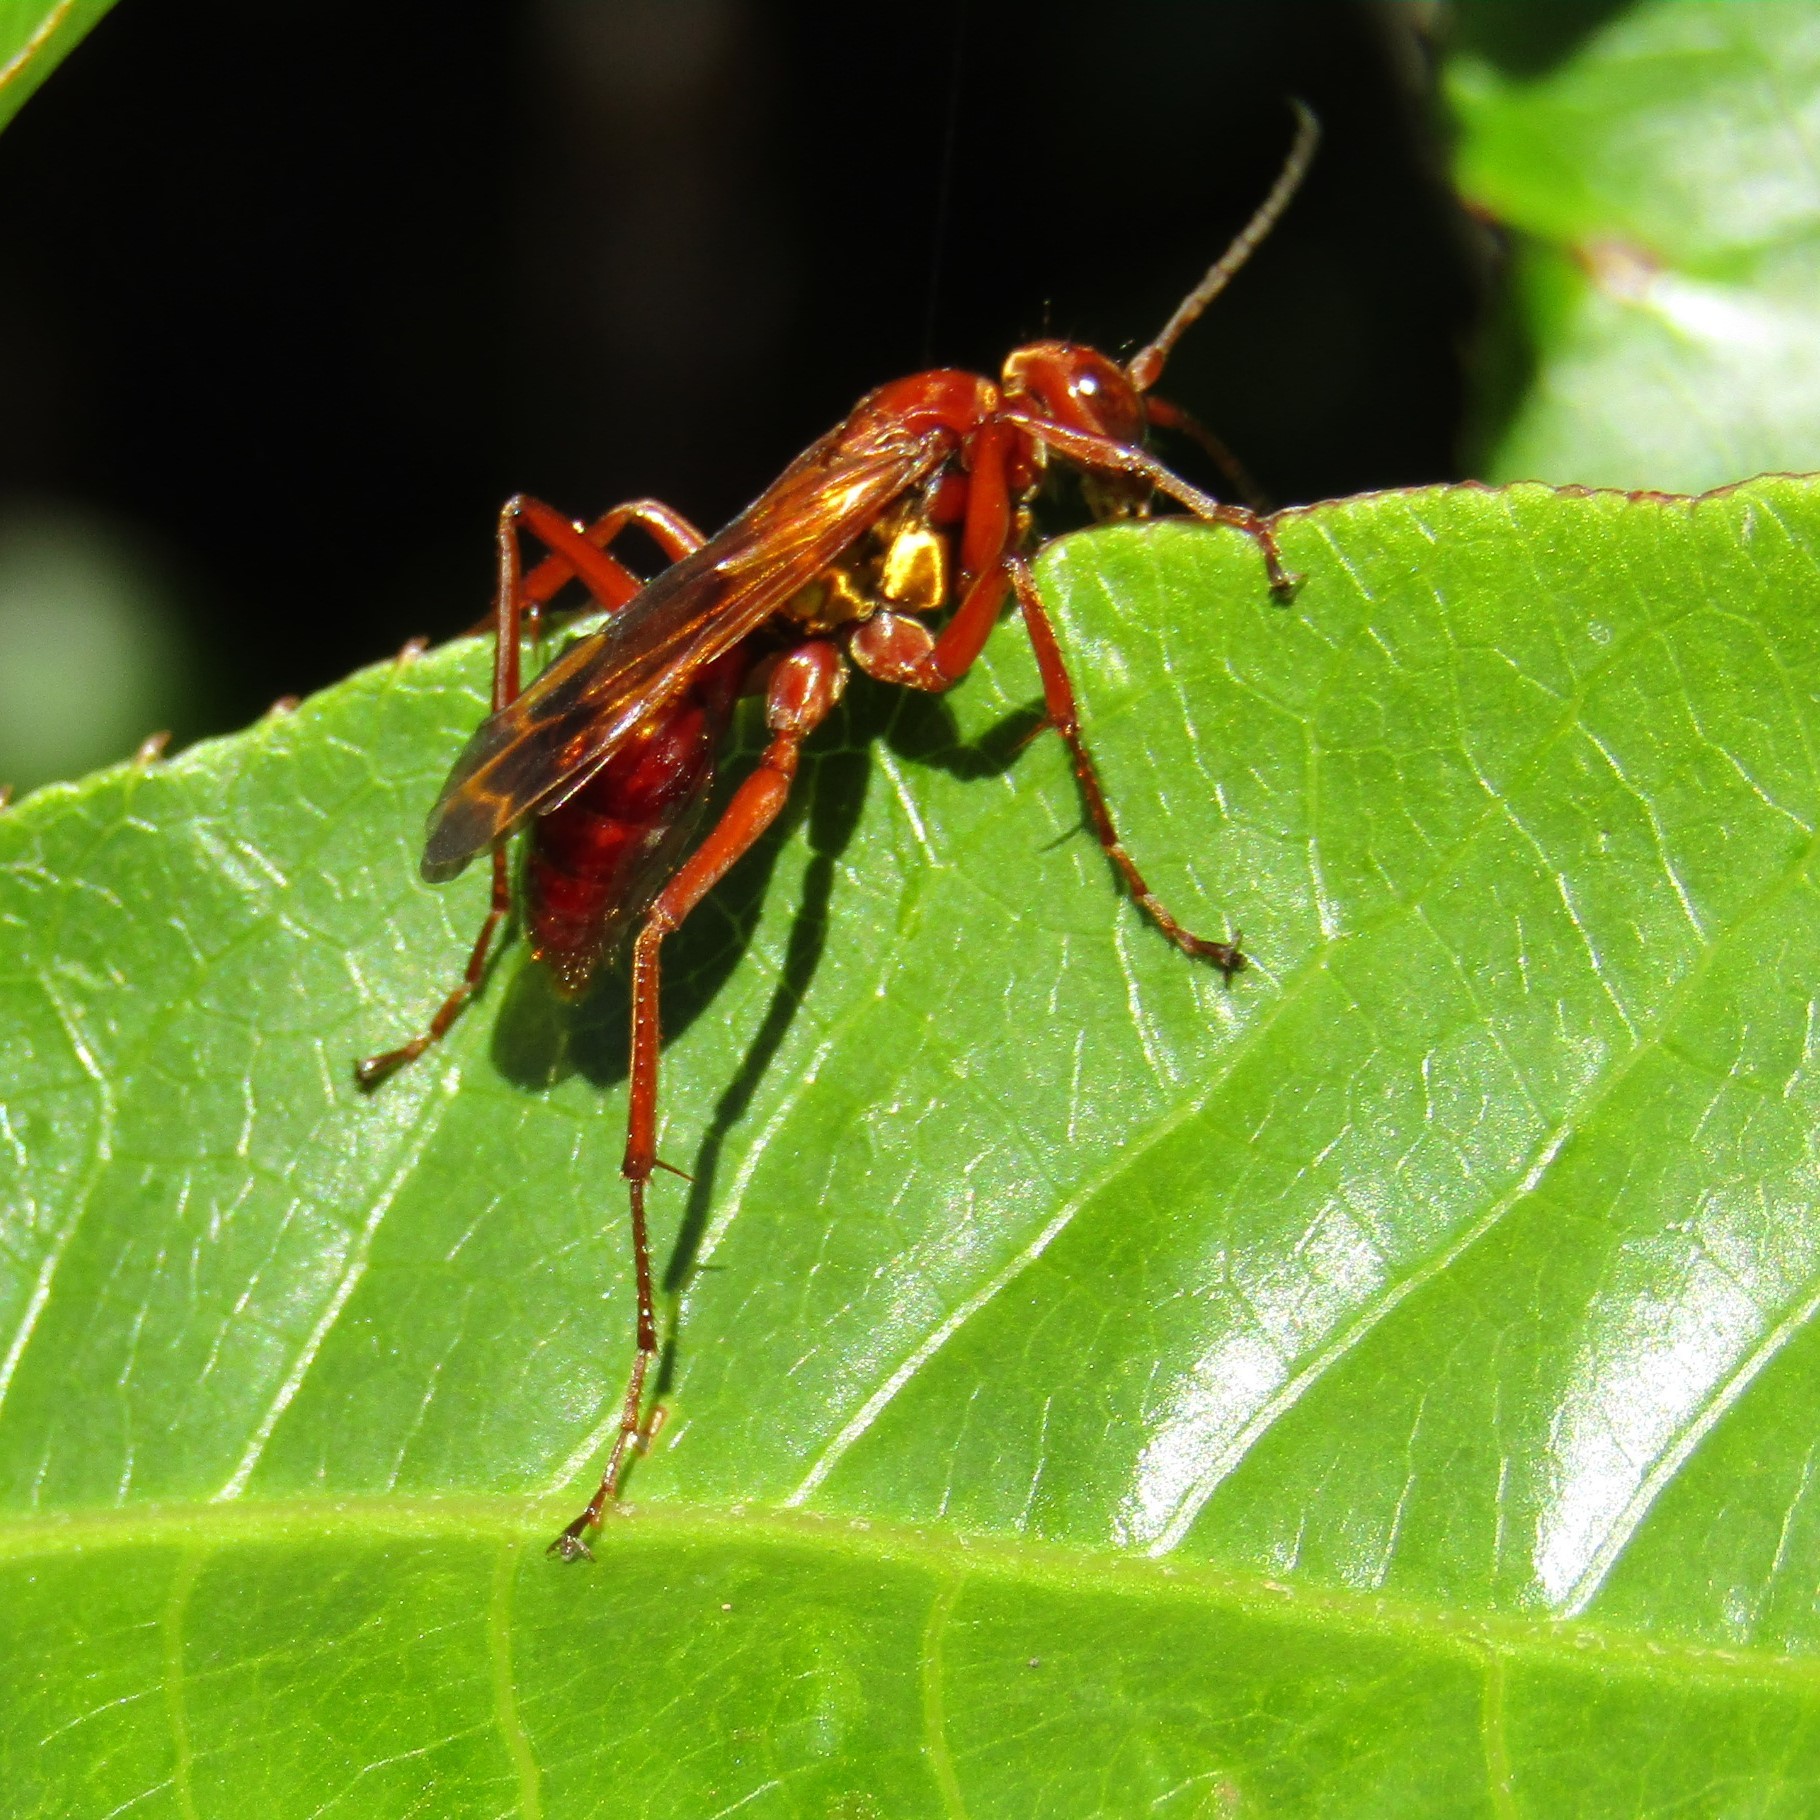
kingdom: Animalia
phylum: Arthropoda
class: Insecta
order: Hymenoptera
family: Pompilidae
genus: Sphictostethus
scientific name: Sphictostethus nitidus
